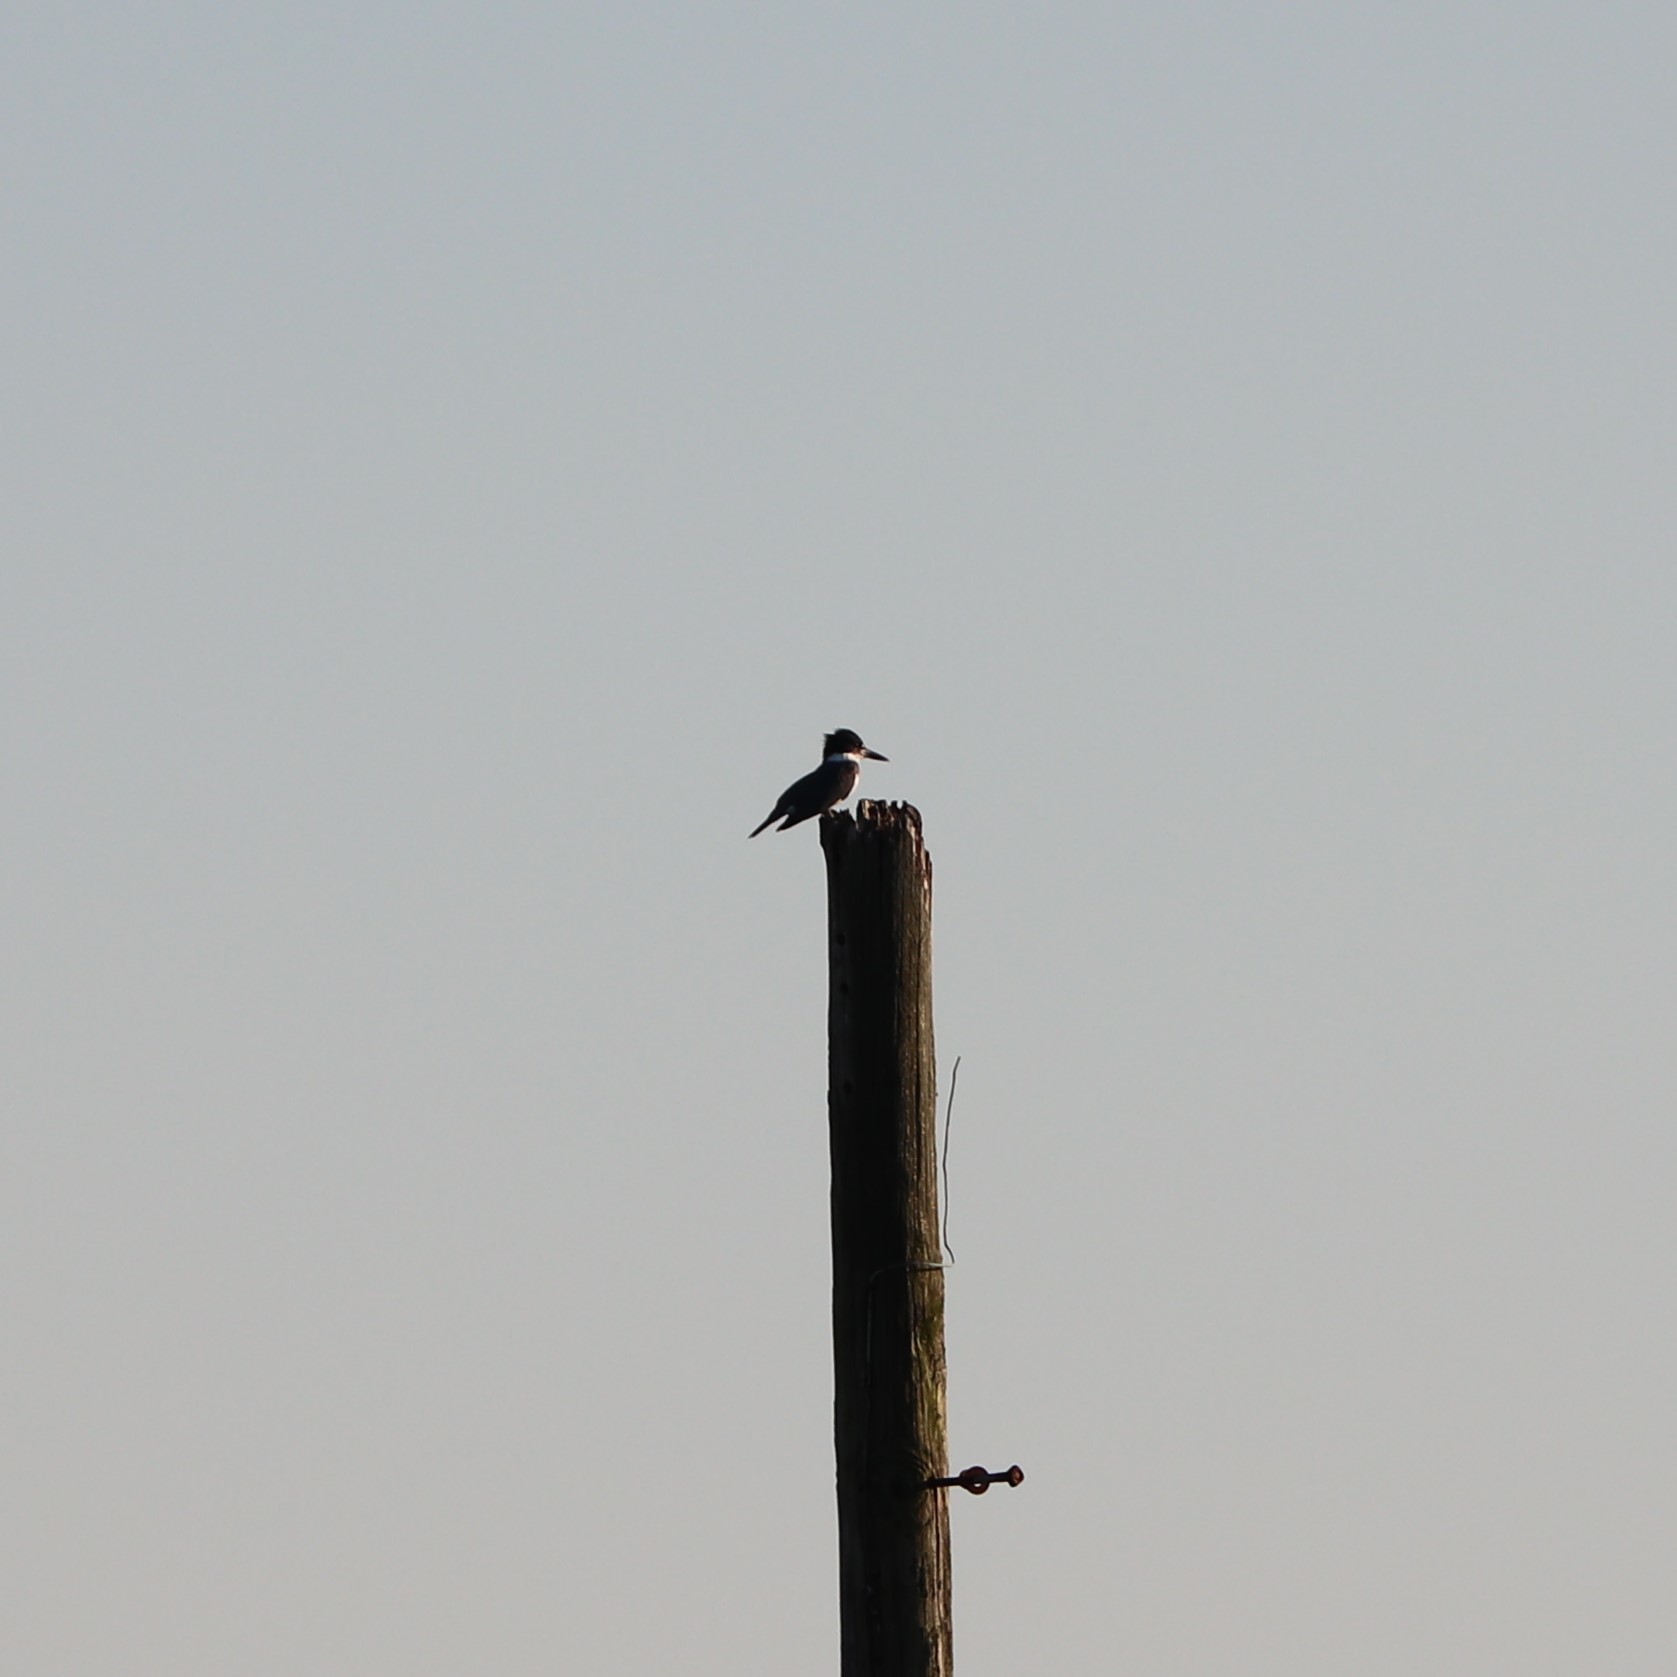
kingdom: Animalia
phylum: Chordata
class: Aves
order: Coraciiformes
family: Alcedinidae
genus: Megaceryle
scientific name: Megaceryle alcyon
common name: Belted kingfisher
